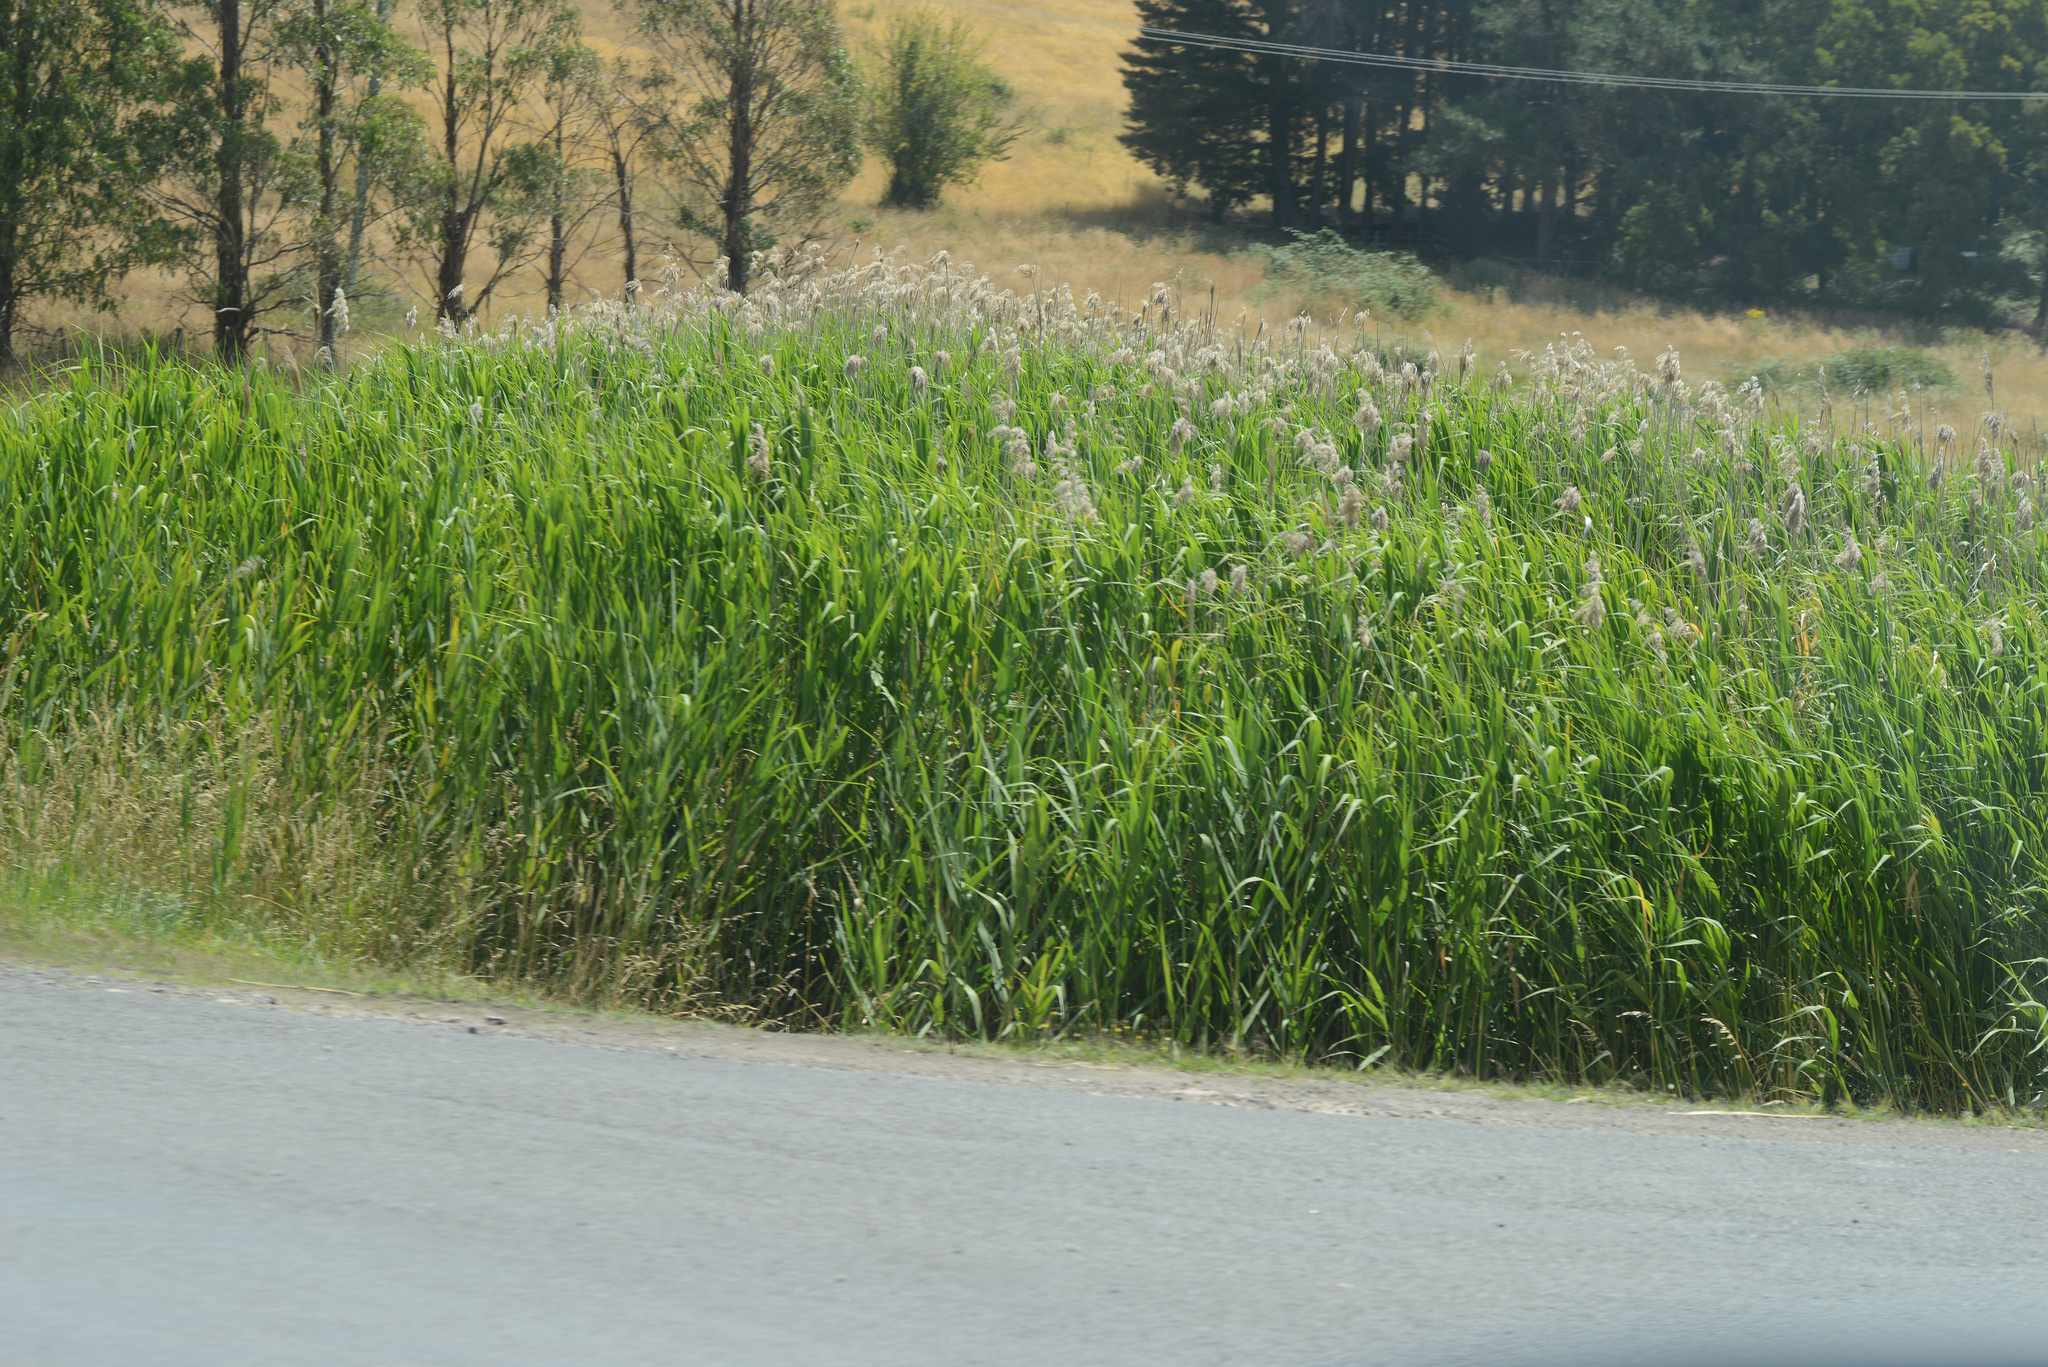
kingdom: Plantae
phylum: Tracheophyta
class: Liliopsida
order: Poales
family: Poaceae
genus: Phragmites
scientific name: Phragmites australis
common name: Common reed
